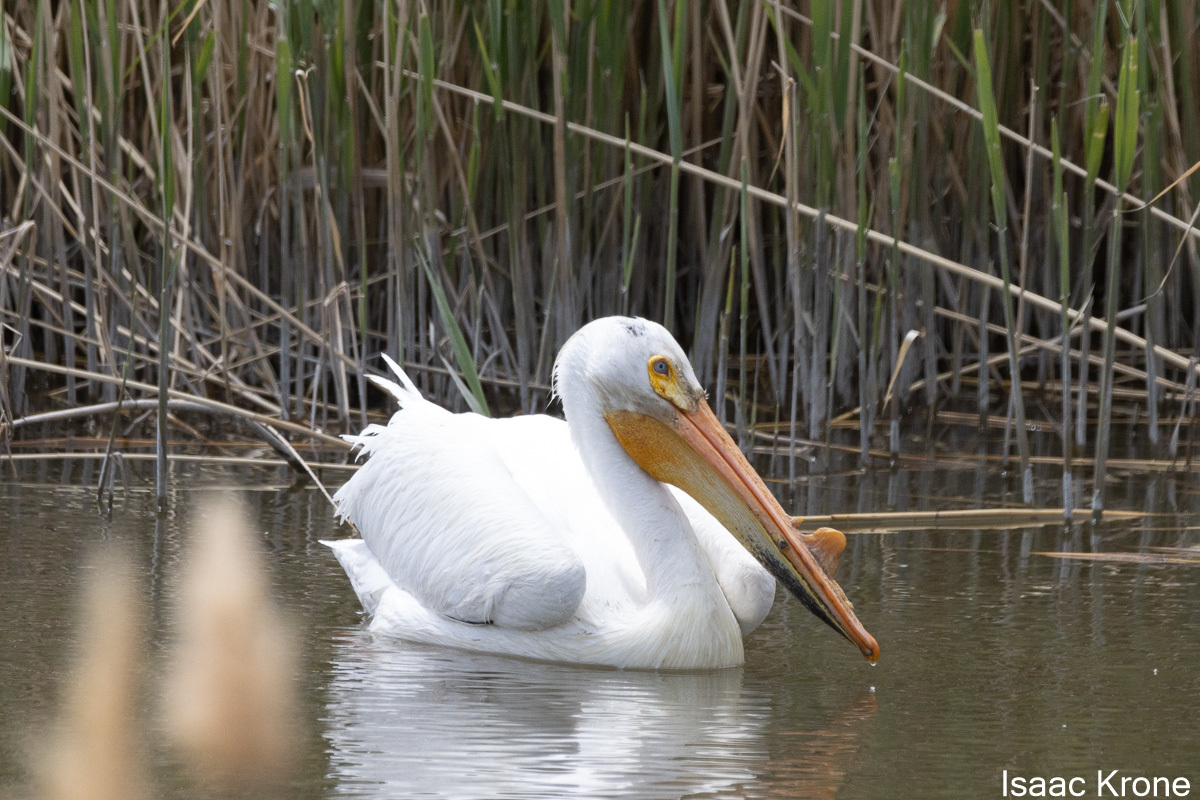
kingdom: Animalia
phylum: Chordata
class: Aves
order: Pelecaniformes
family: Pelecanidae
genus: Pelecanus
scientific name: Pelecanus erythrorhynchos
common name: American white pelican
